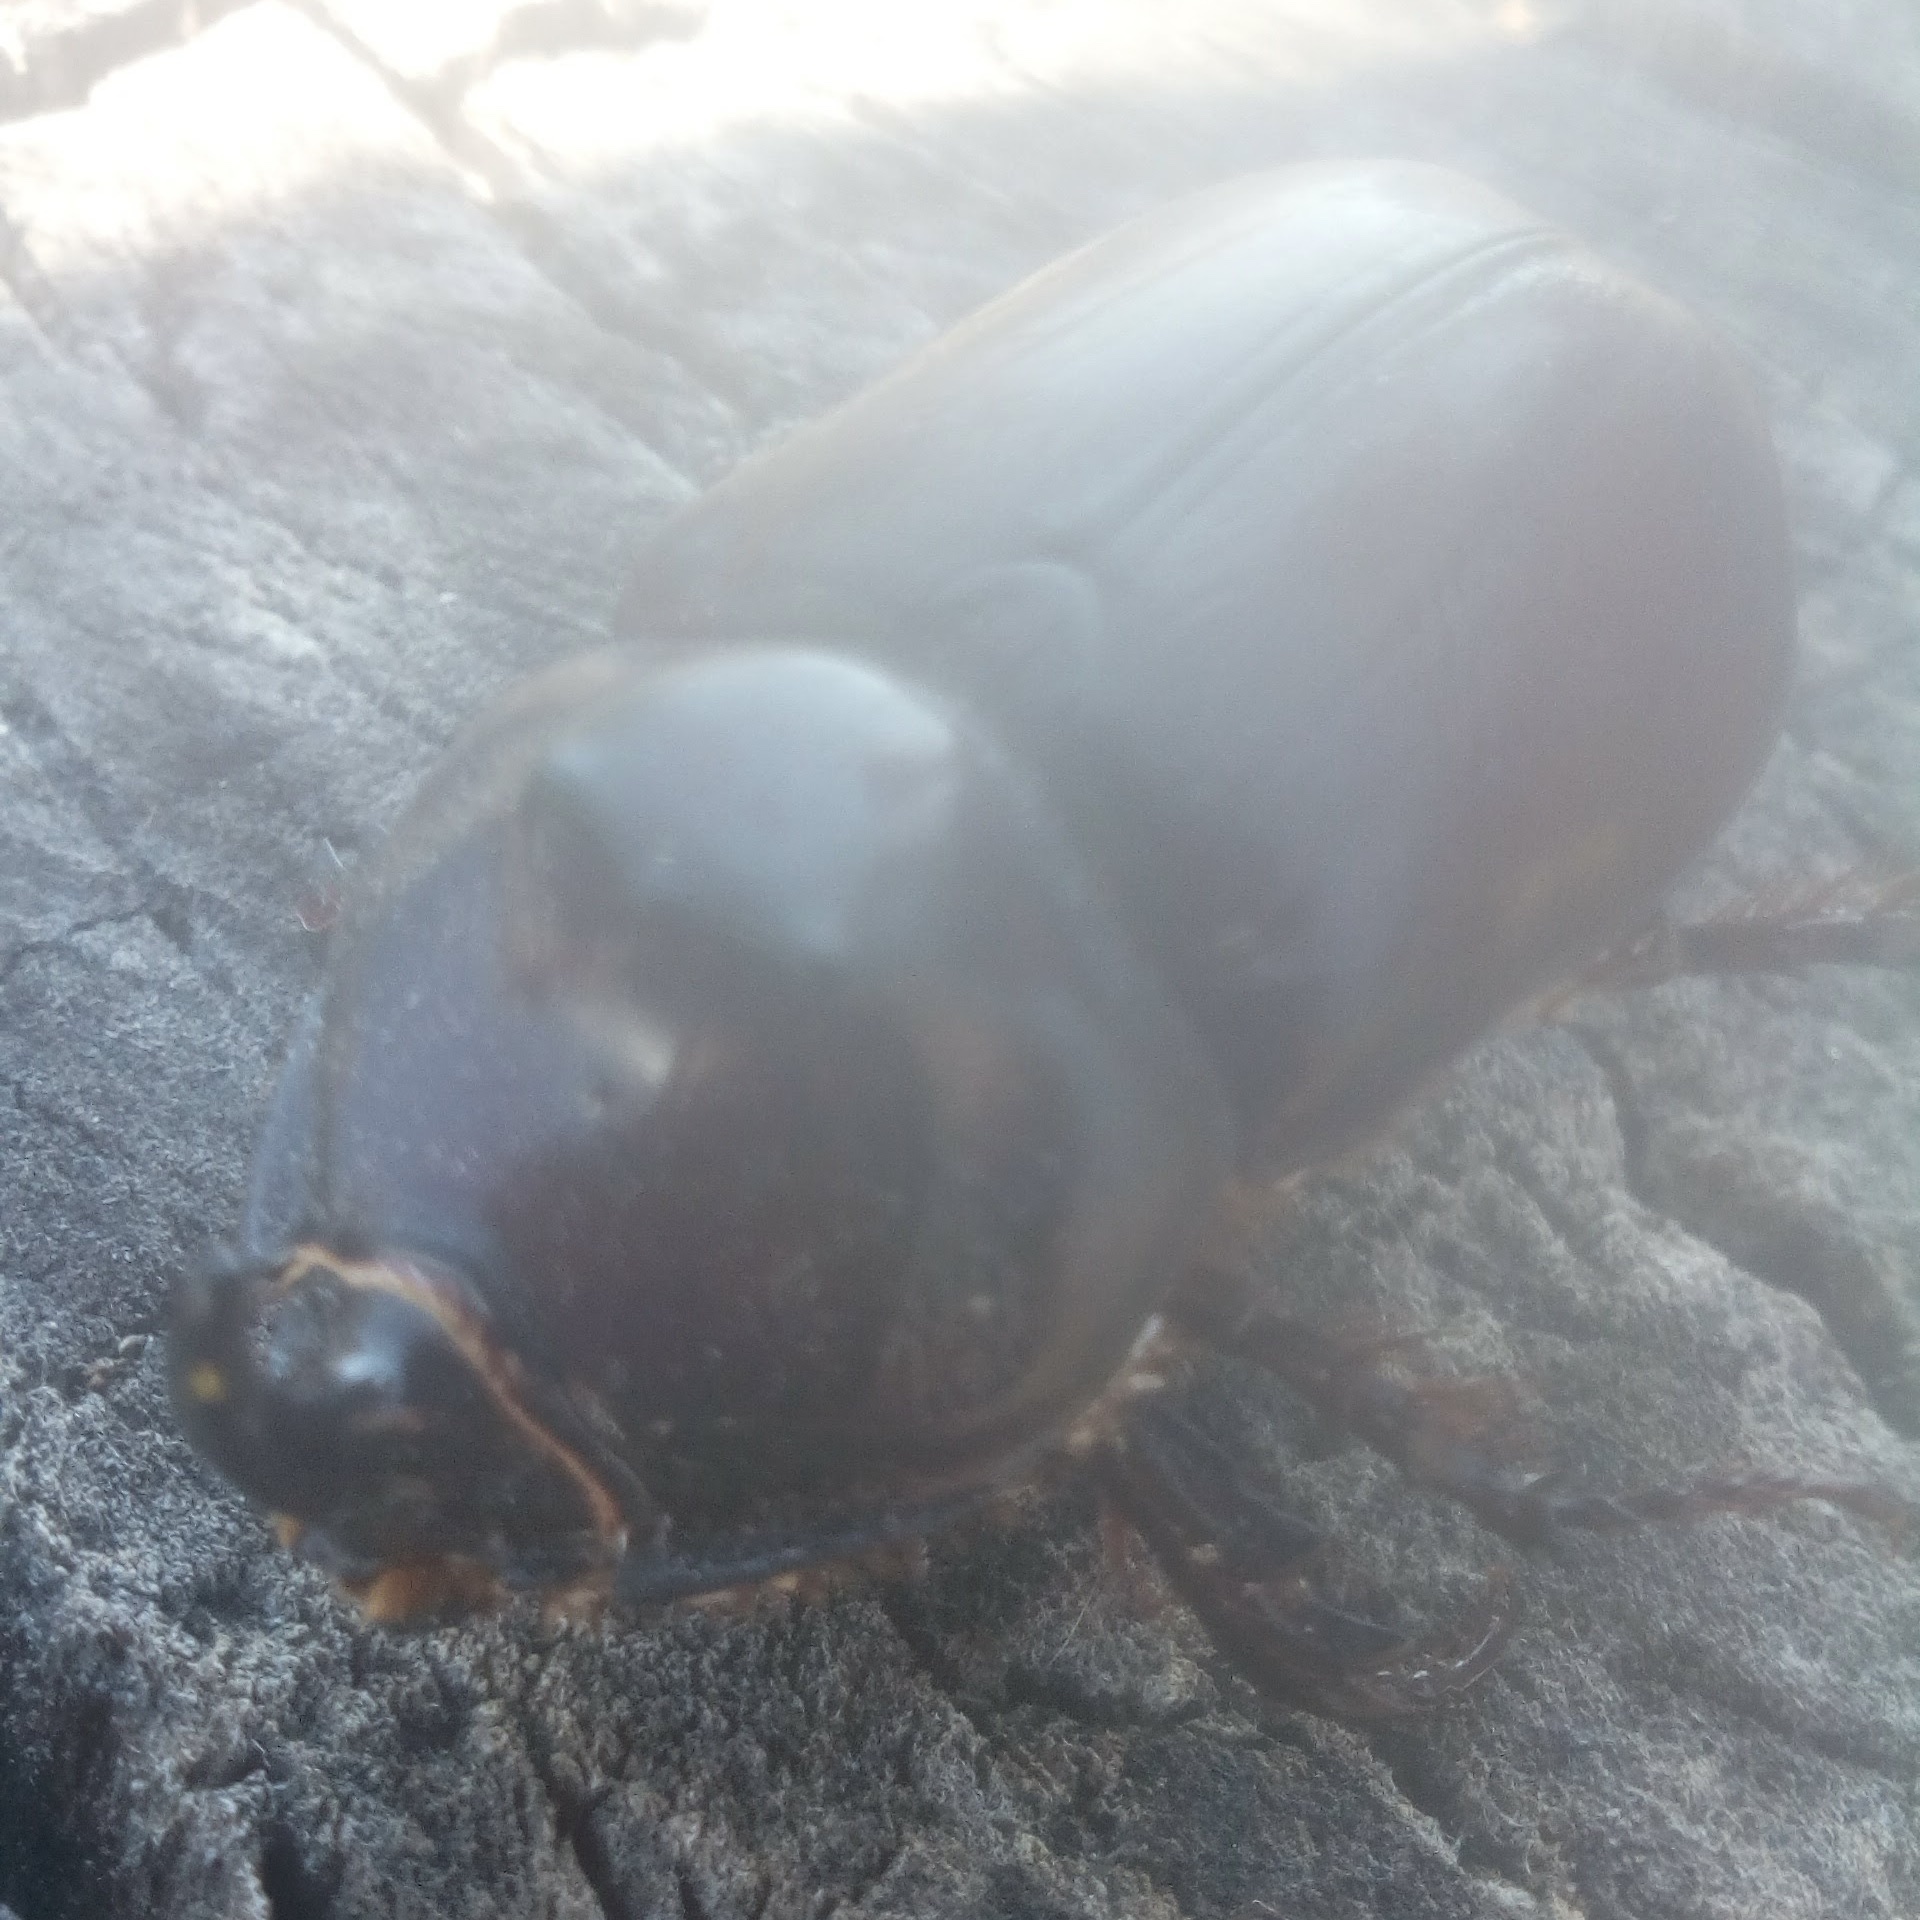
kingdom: Animalia
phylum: Arthropoda
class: Insecta
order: Coleoptera
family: Scarabaeidae
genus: Oryctes
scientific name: Oryctes nasicornis
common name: European rhinoceros beetle
